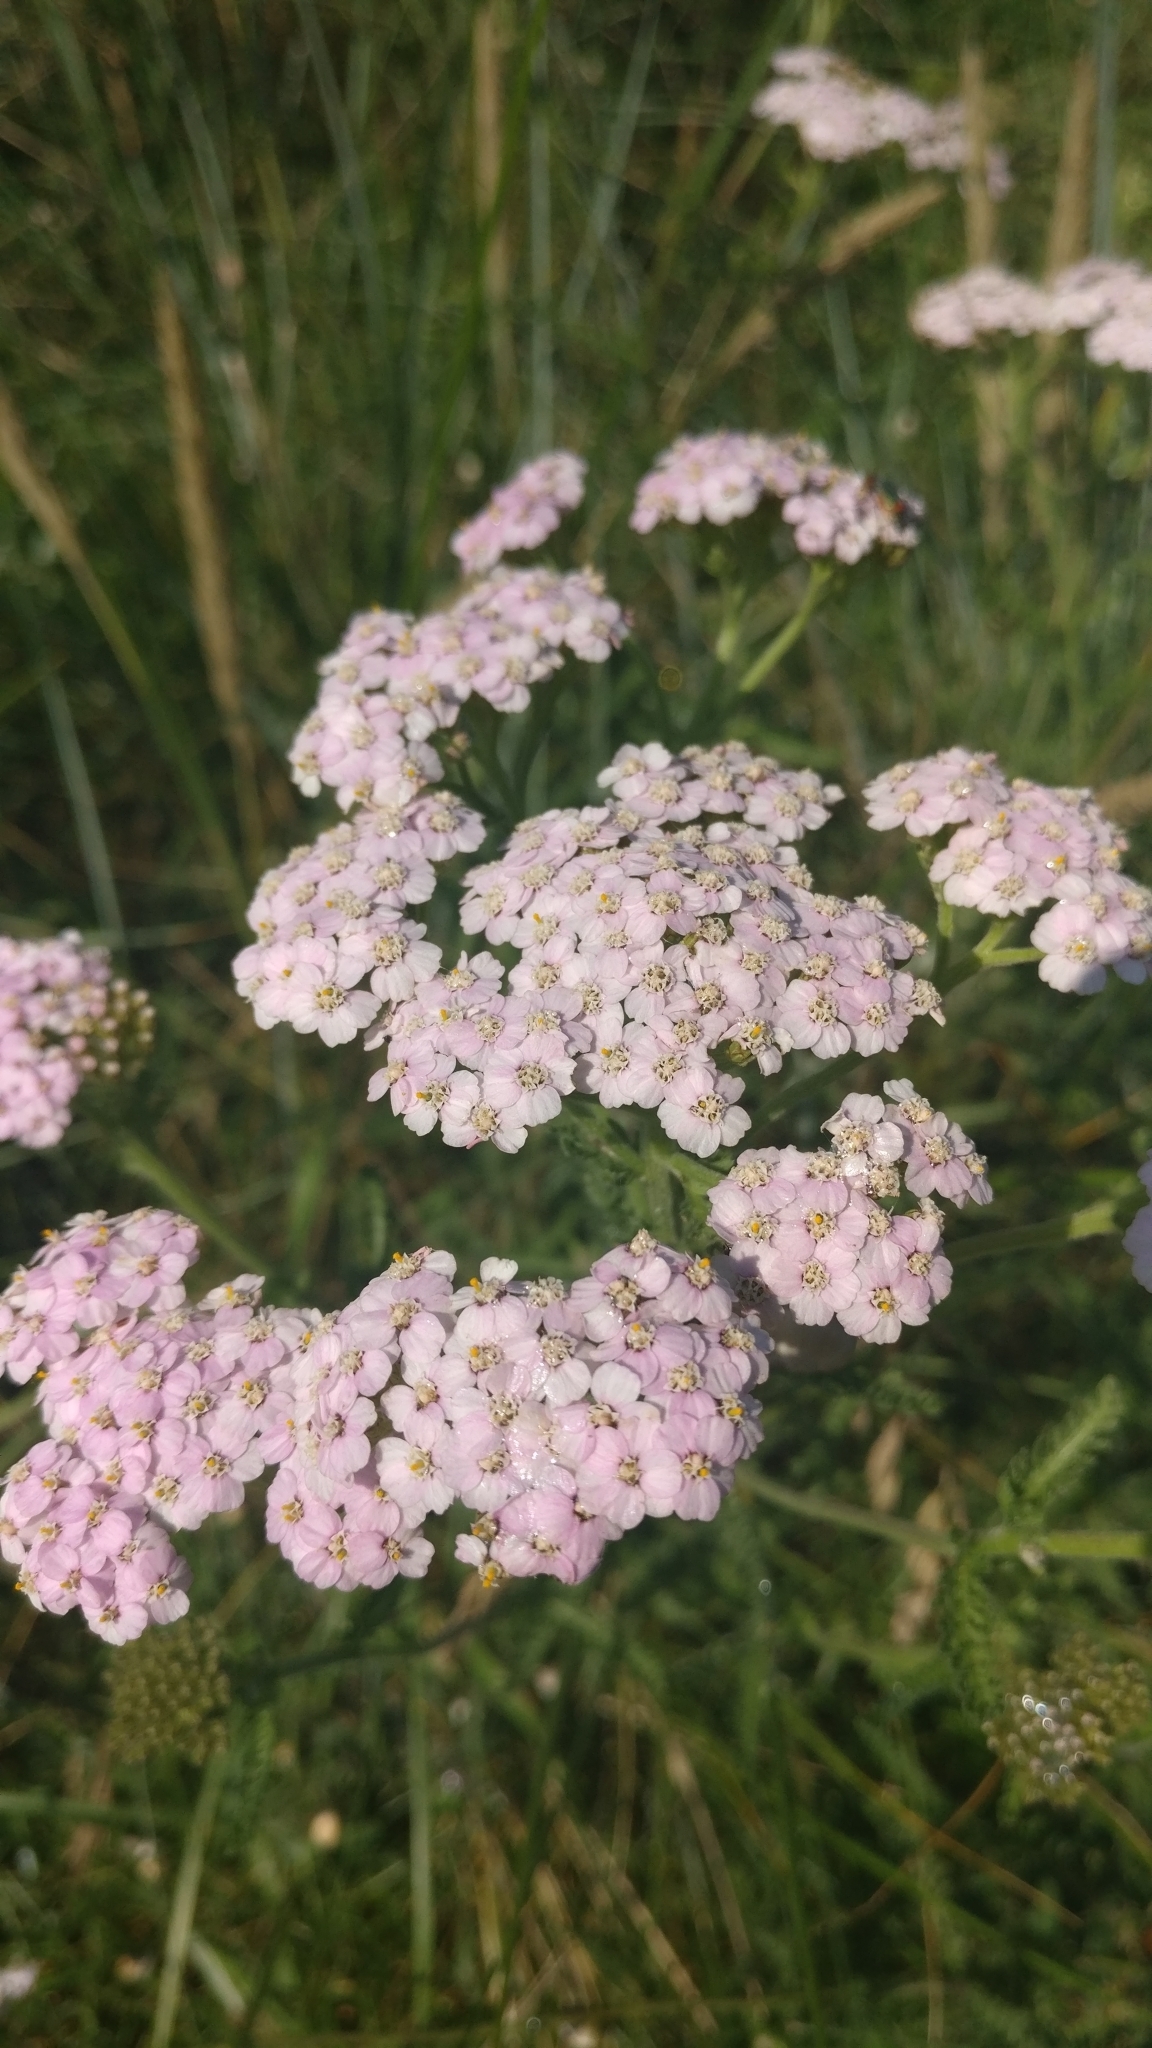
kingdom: Plantae
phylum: Tracheophyta
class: Magnoliopsida
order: Asterales
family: Asteraceae
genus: Achillea
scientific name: Achillea millefolium
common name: Yarrow
